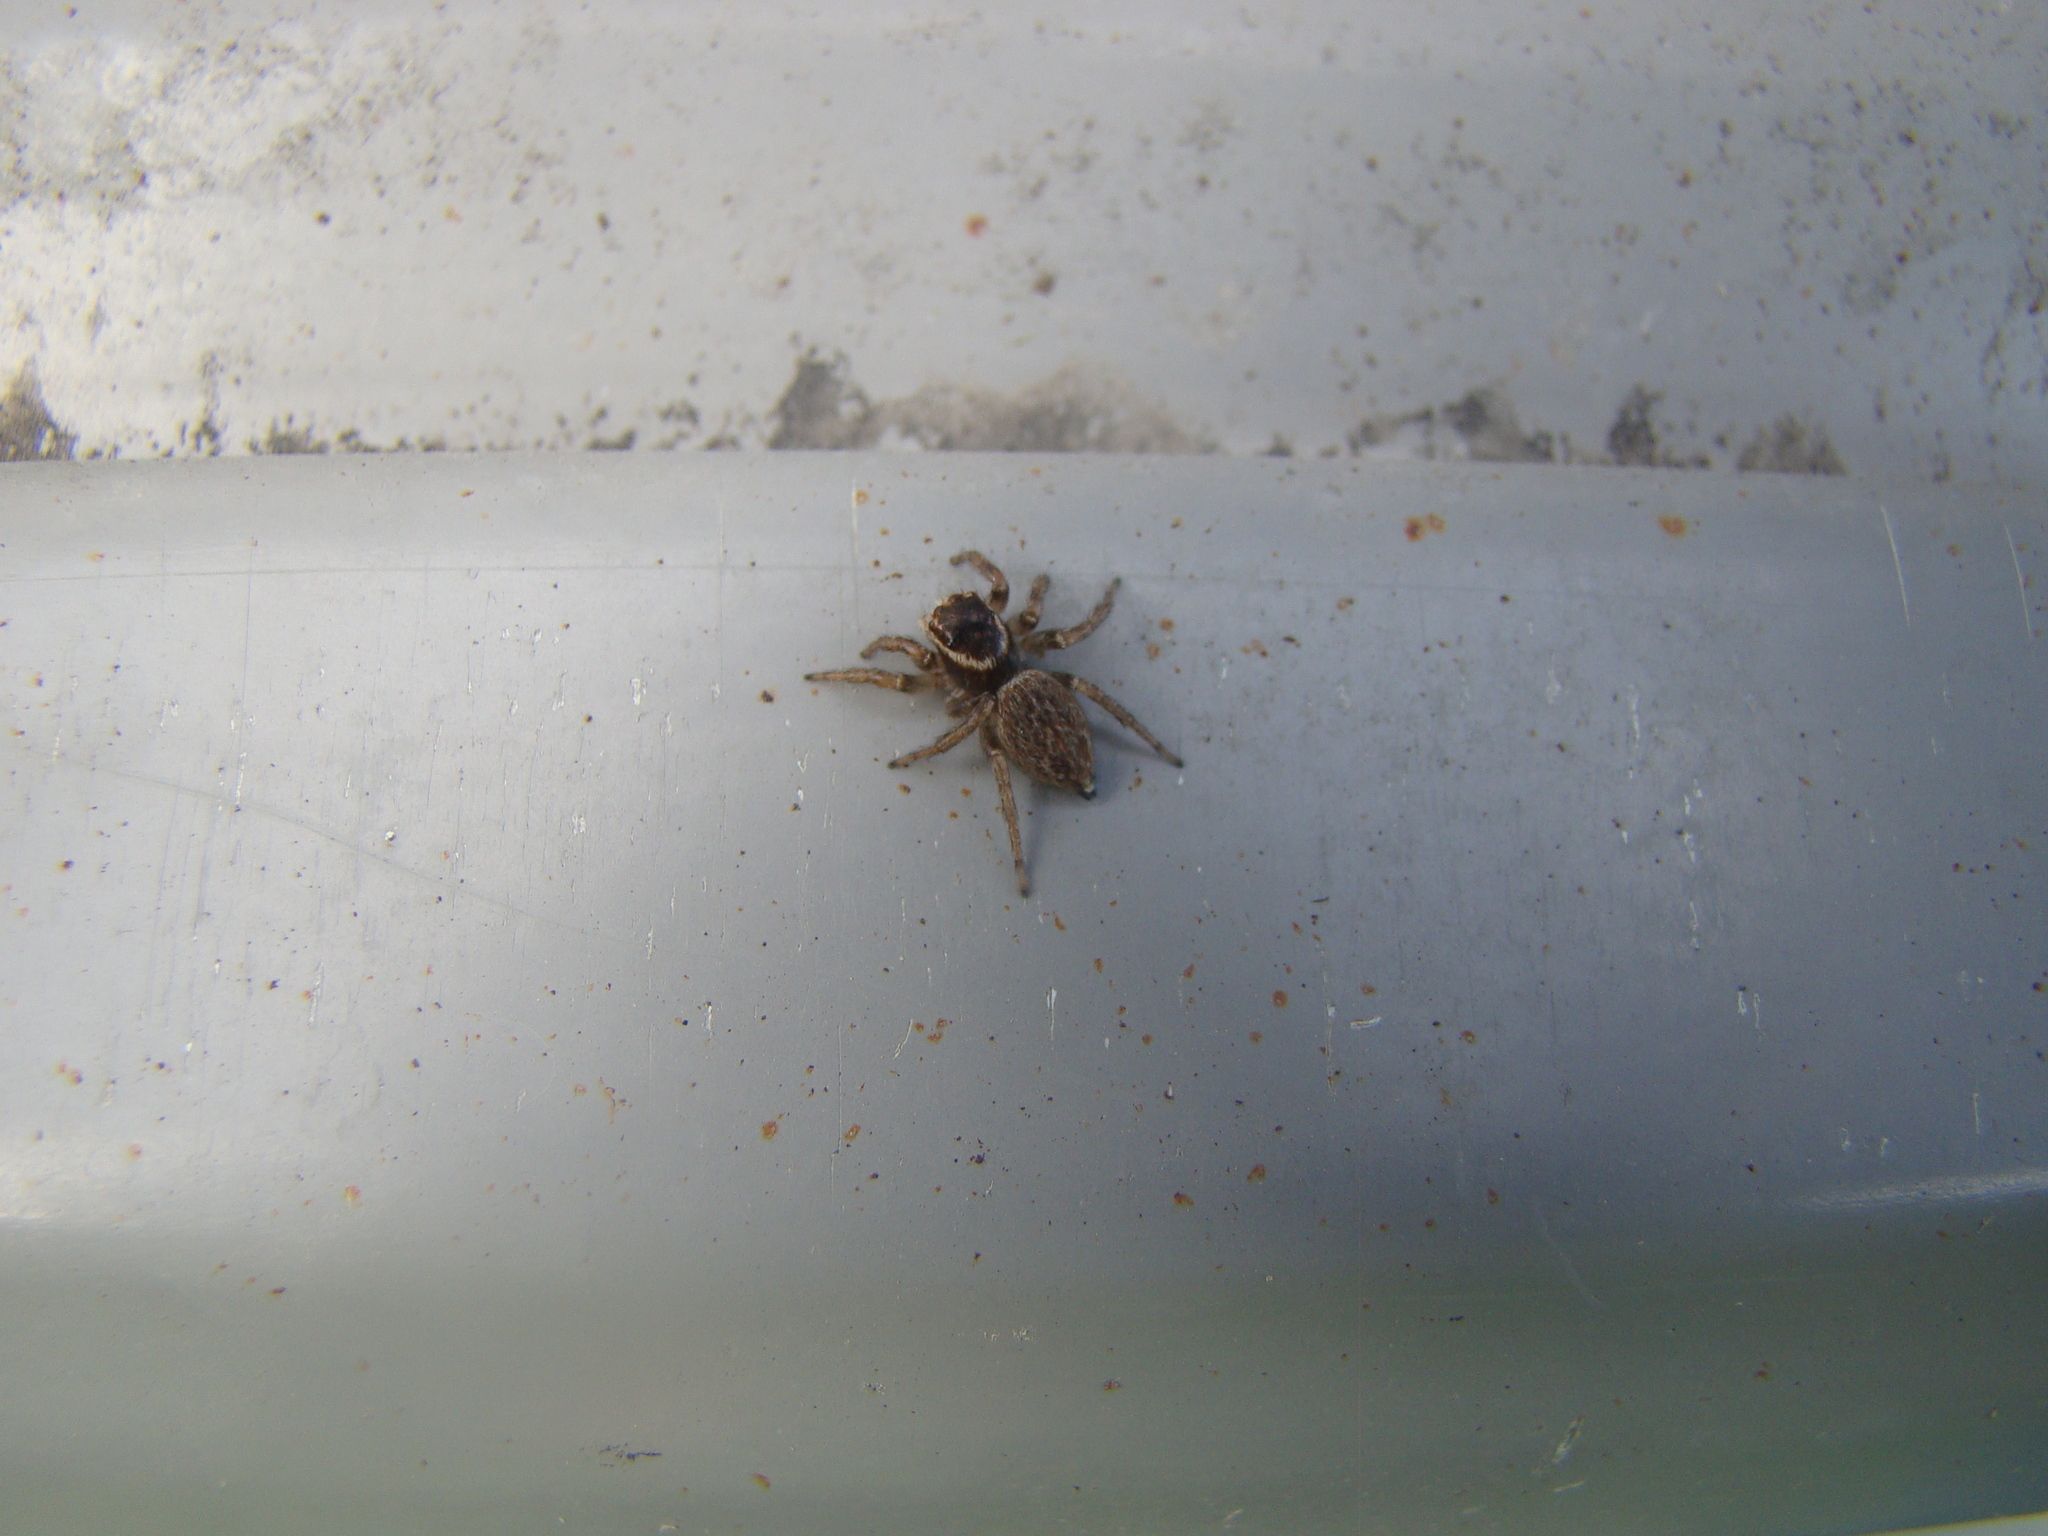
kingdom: Animalia
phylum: Arthropoda
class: Arachnida
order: Araneae
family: Salticidae
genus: Maratus
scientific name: Maratus griseus
